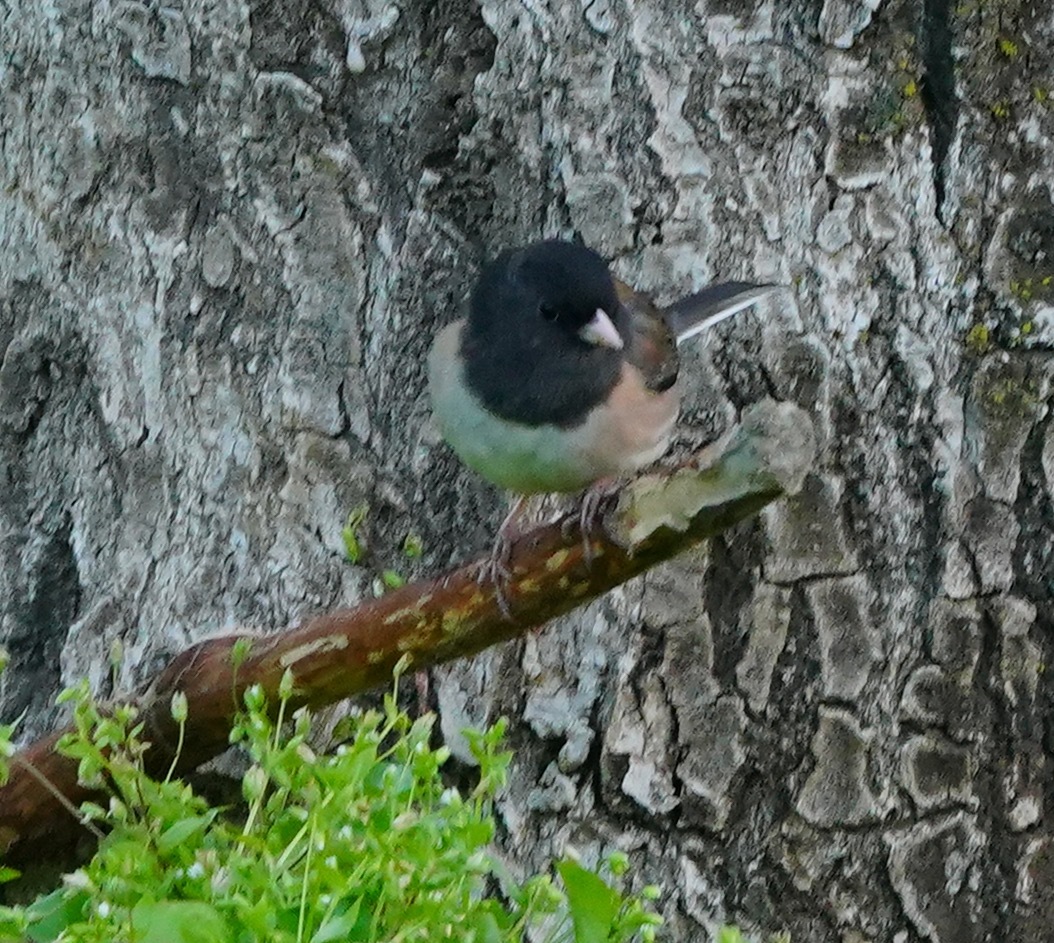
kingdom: Animalia
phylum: Chordata
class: Aves
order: Passeriformes
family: Passerellidae
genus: Junco
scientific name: Junco hyemalis
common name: Dark-eyed junco
